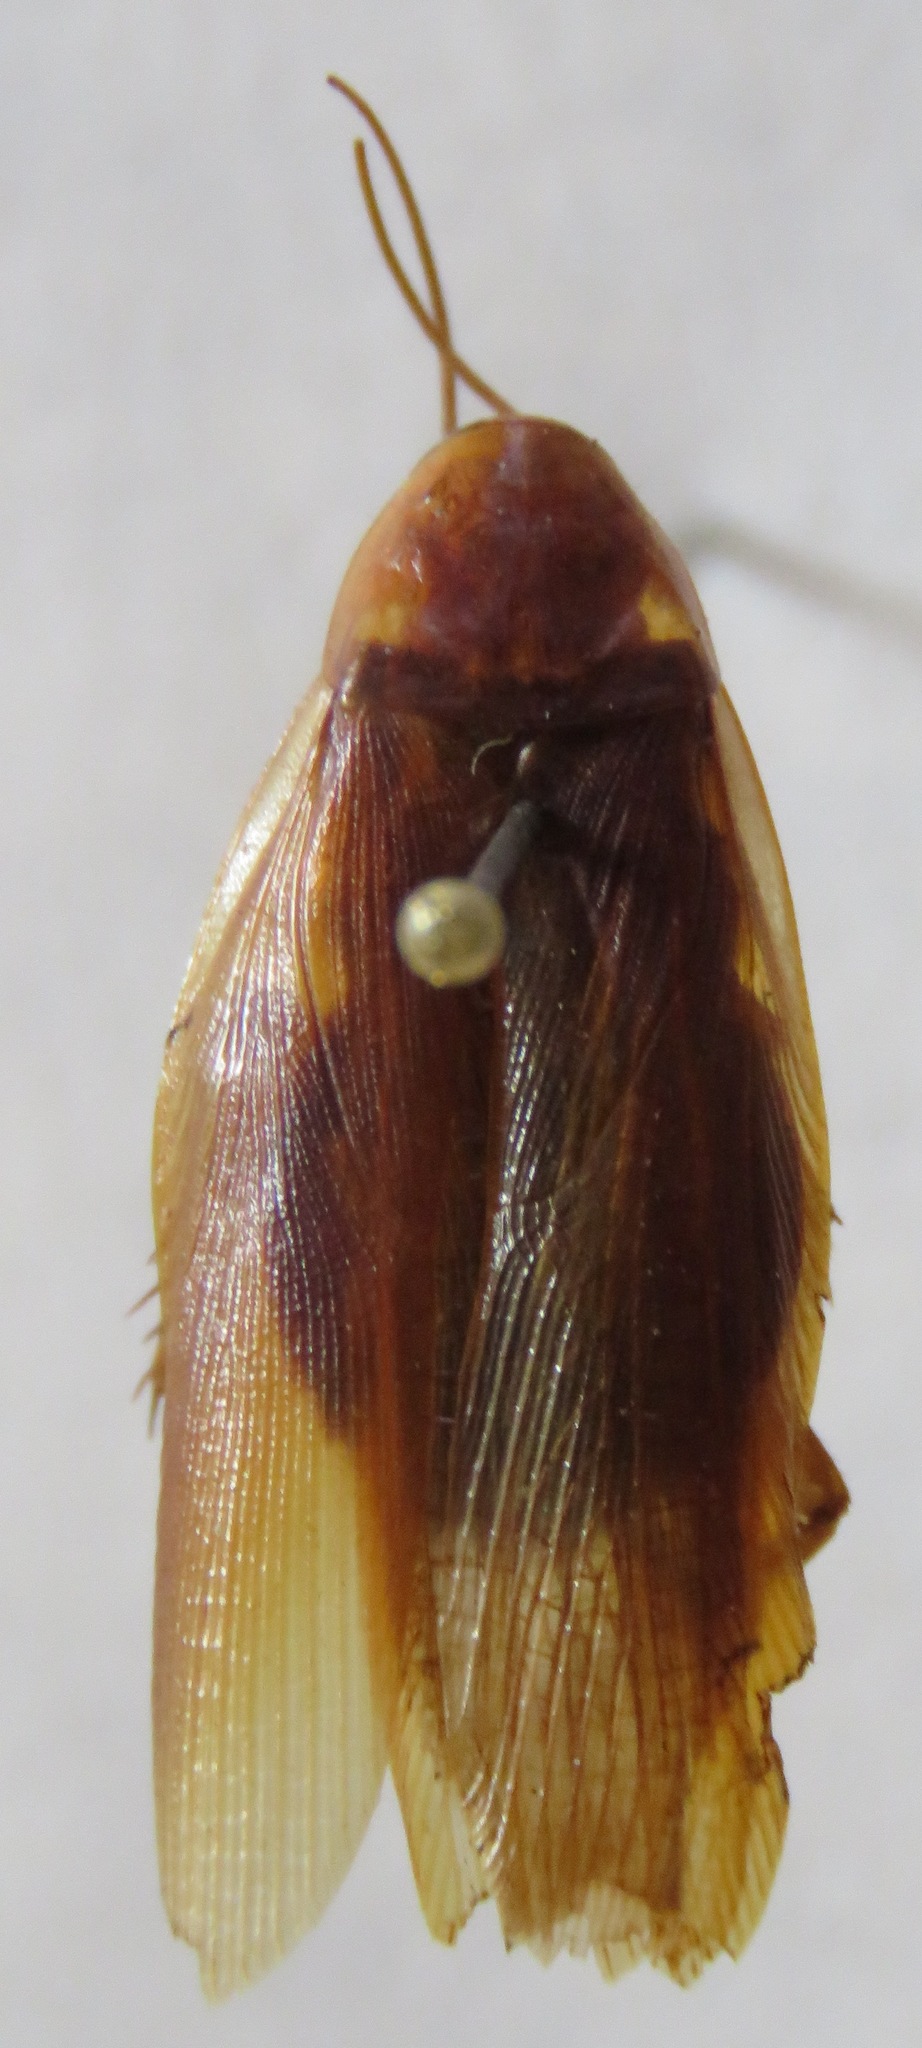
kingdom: Animalia
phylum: Arthropoda
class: Insecta
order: Blattodea
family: Ectobiidae
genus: Ischnoptera
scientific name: Ischnoptera rufa
